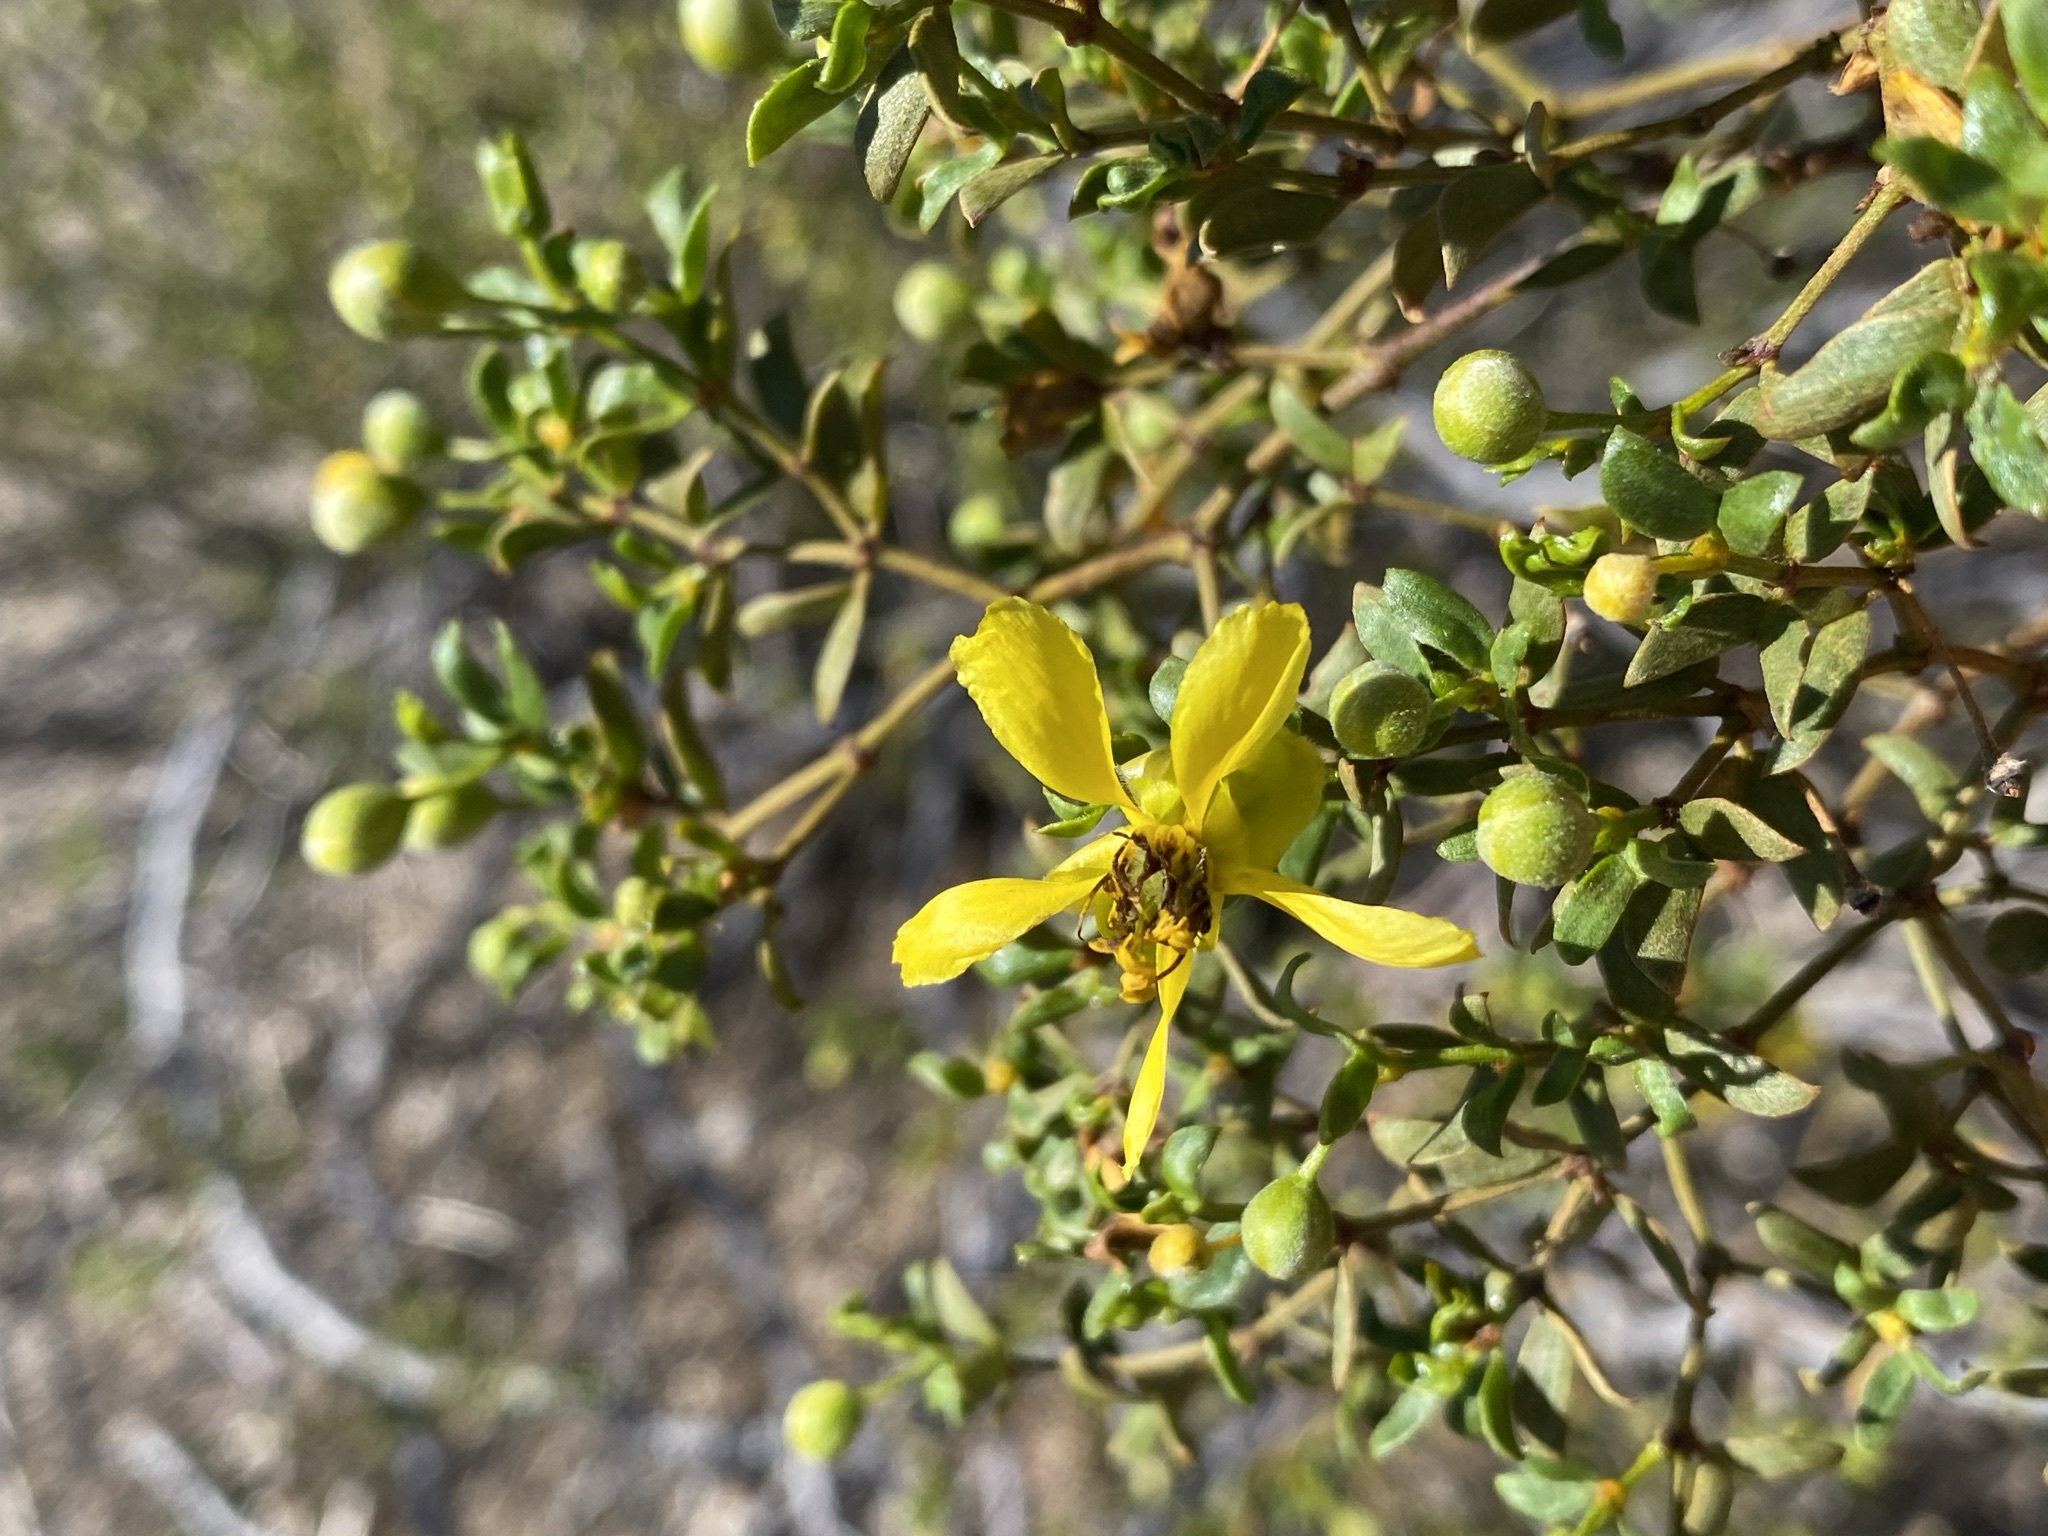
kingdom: Plantae
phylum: Tracheophyta
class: Magnoliopsida
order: Zygophyllales
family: Zygophyllaceae
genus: Larrea
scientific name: Larrea tridentata
